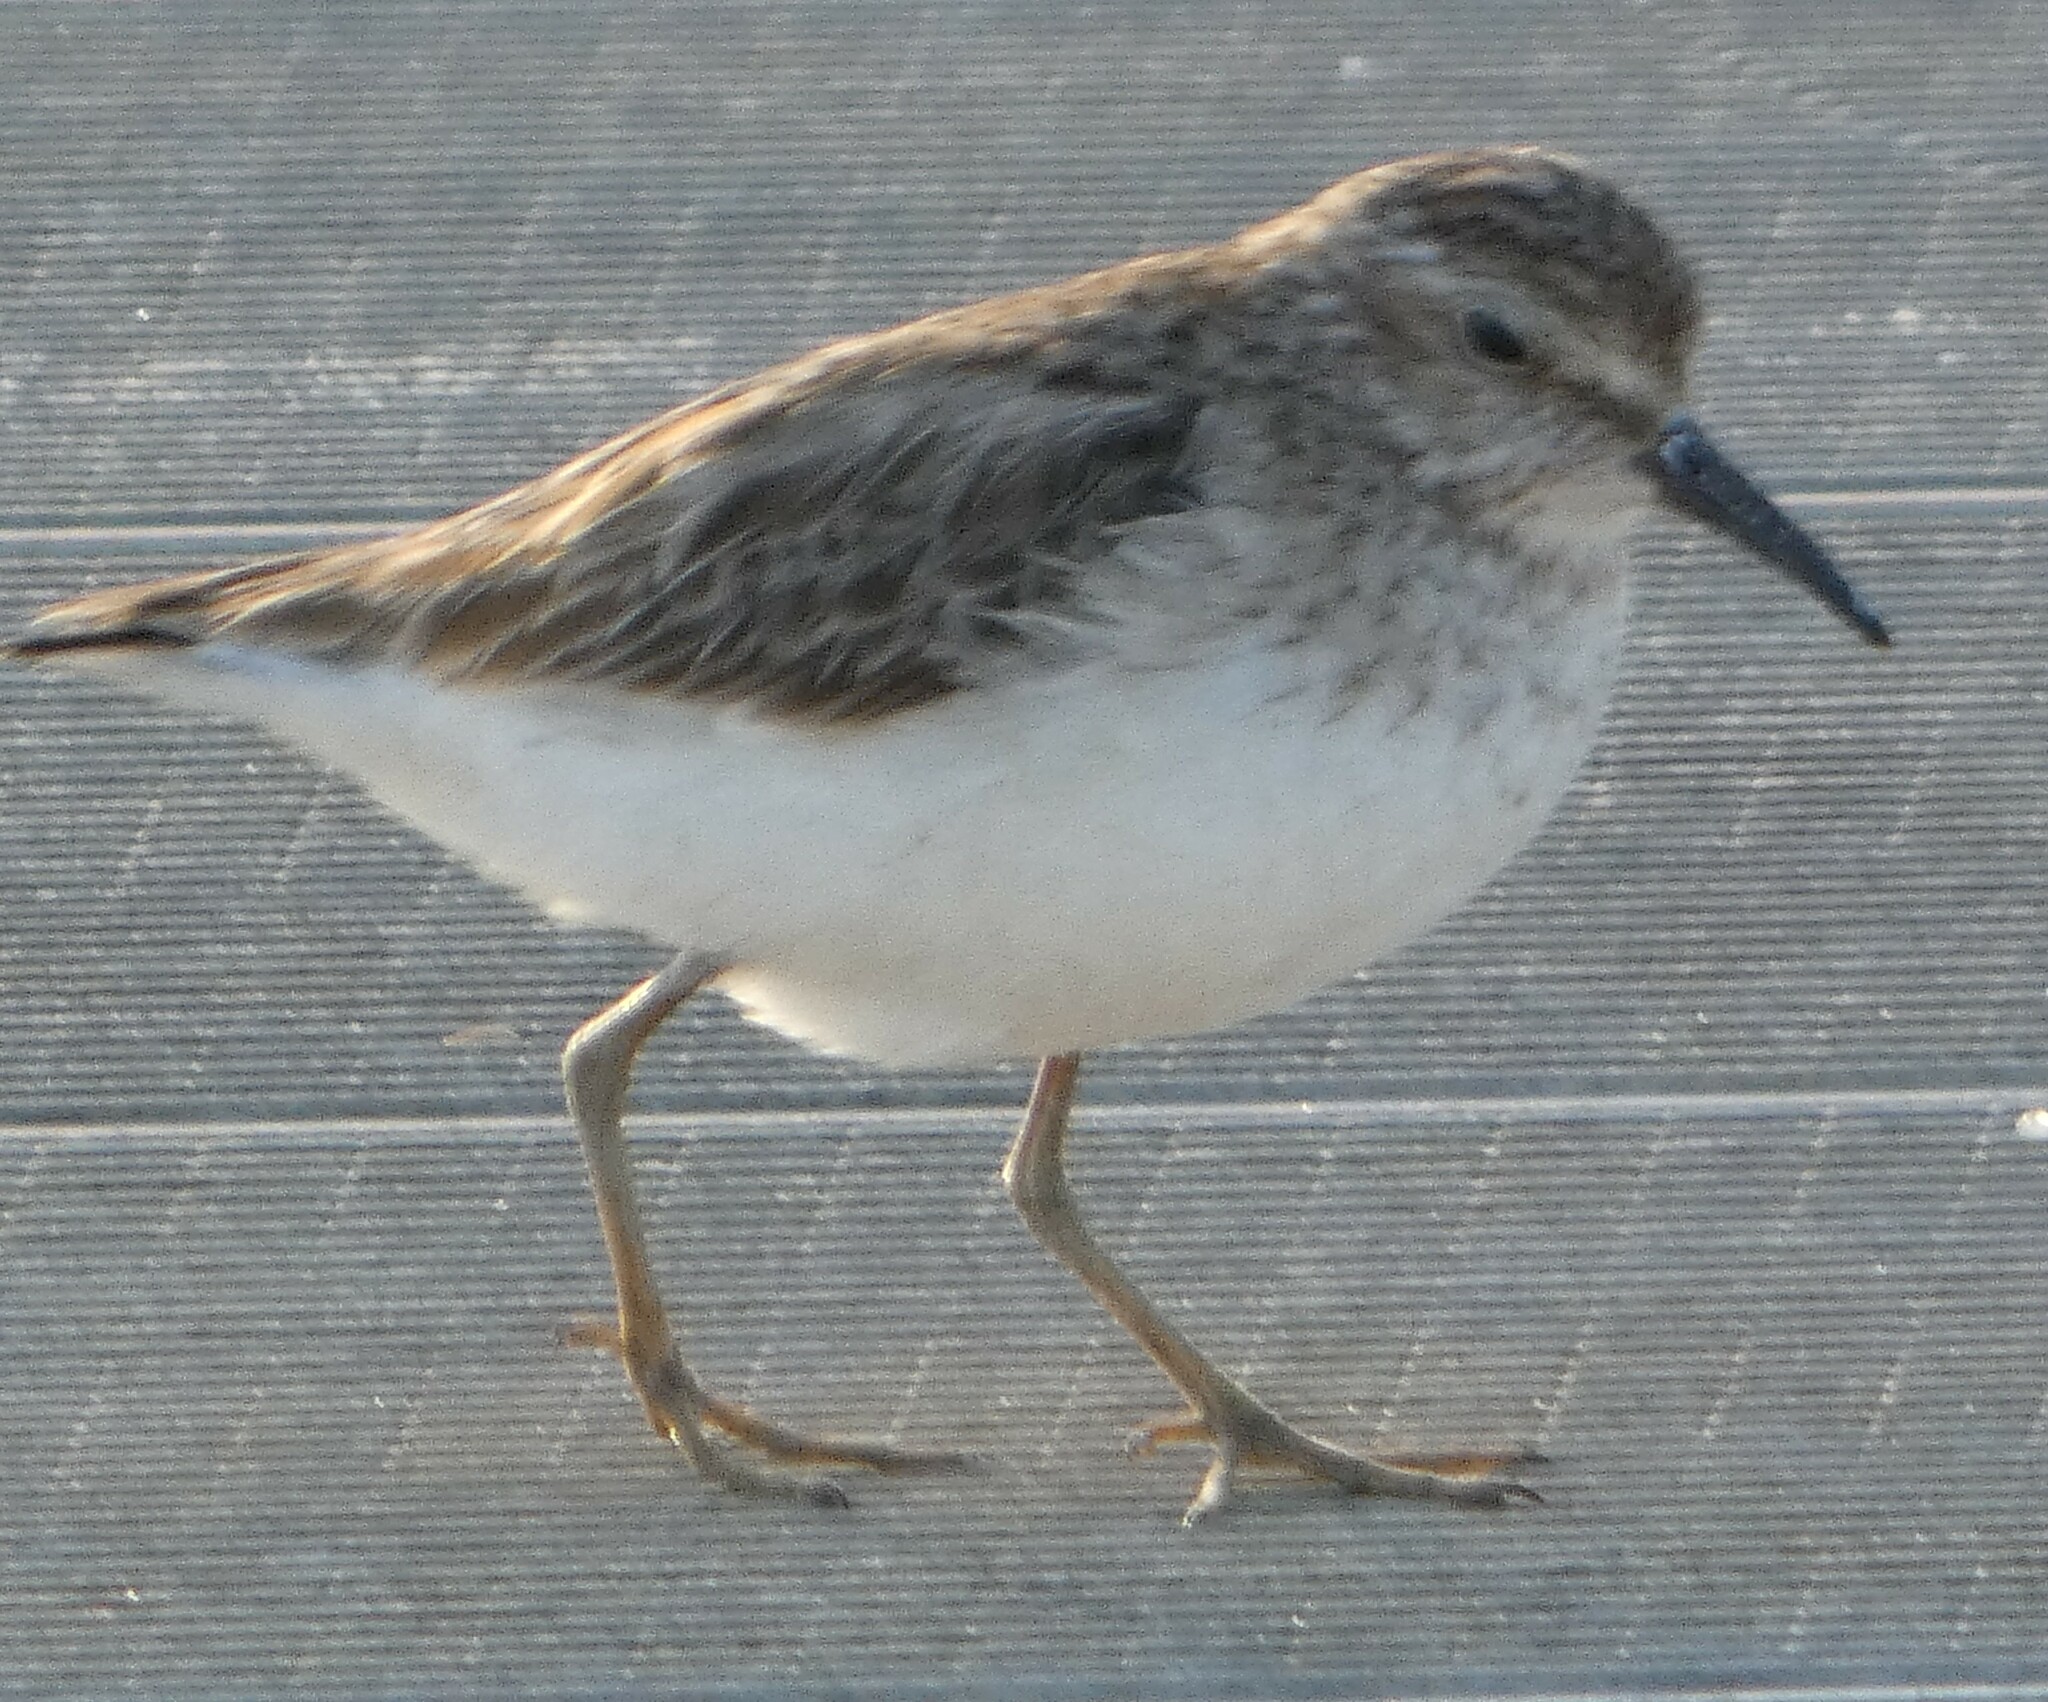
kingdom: Animalia
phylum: Chordata
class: Aves
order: Charadriiformes
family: Scolopacidae
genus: Calidris
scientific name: Calidris minutilla
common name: Least sandpiper
